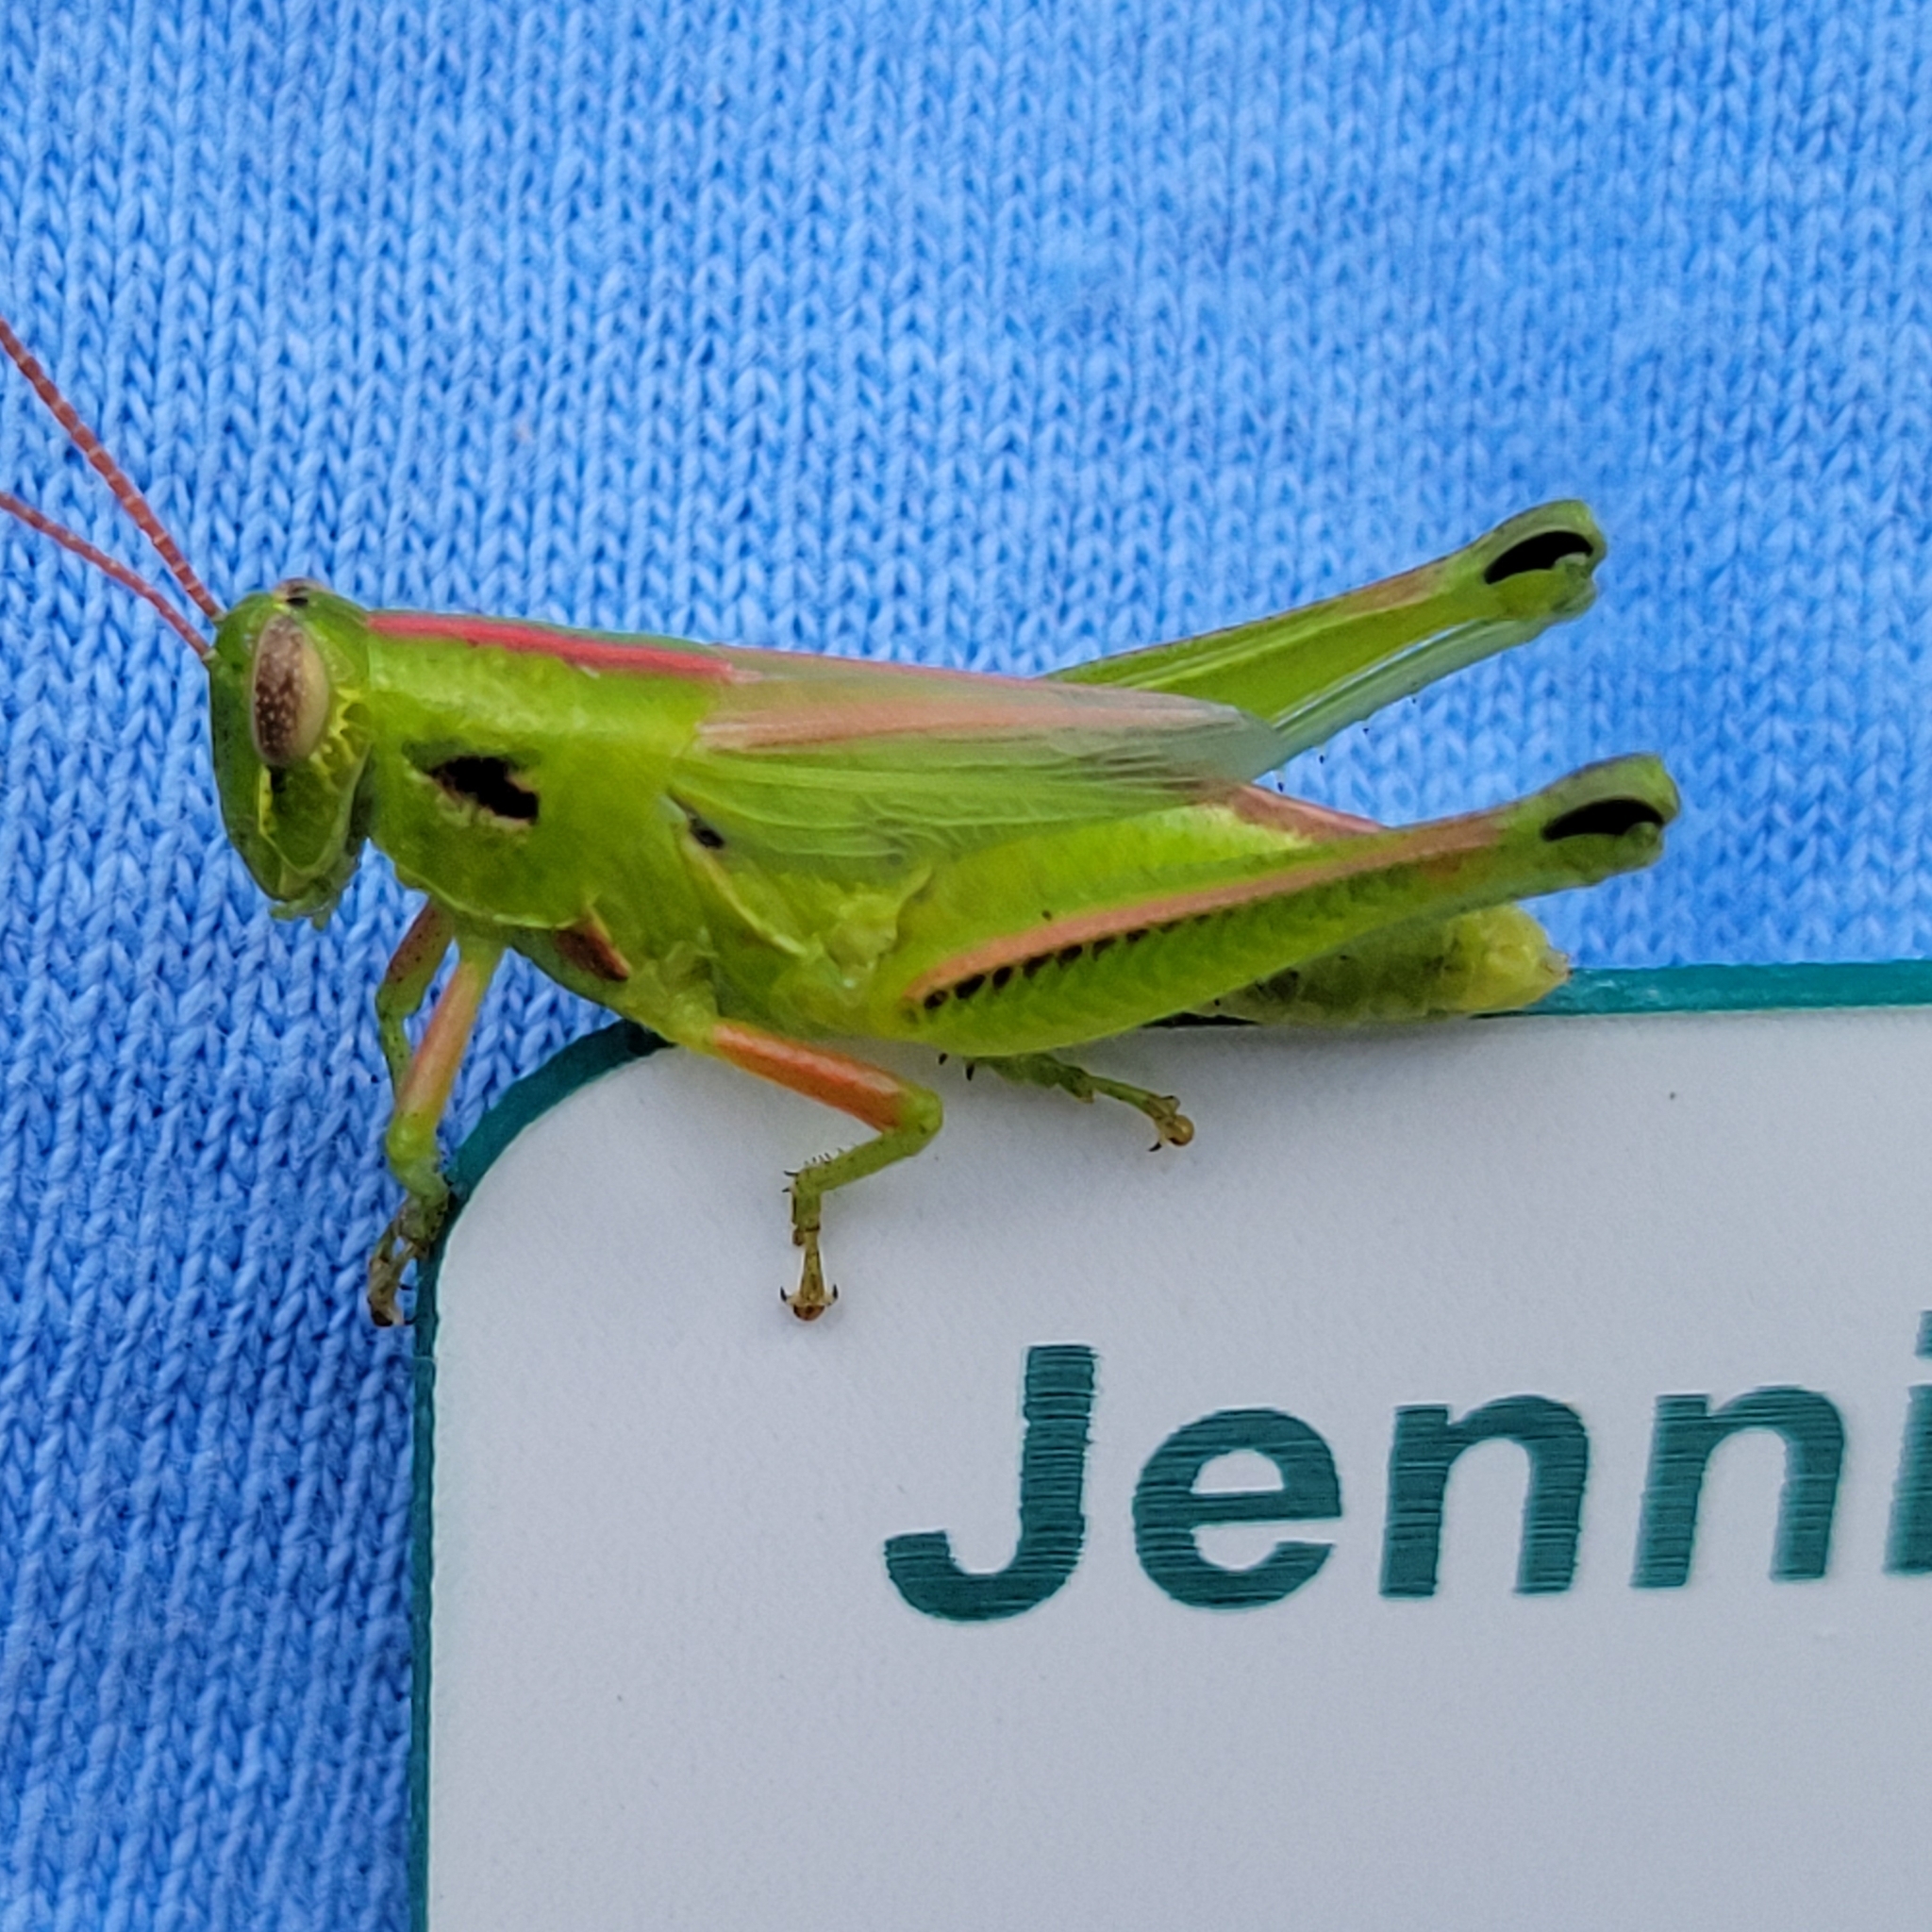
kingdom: Animalia
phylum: Arthropoda
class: Insecta
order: Orthoptera
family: Acrididae
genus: Hesperotettix
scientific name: Hesperotettix viridis
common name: Meadow purple-striped grasshopper
